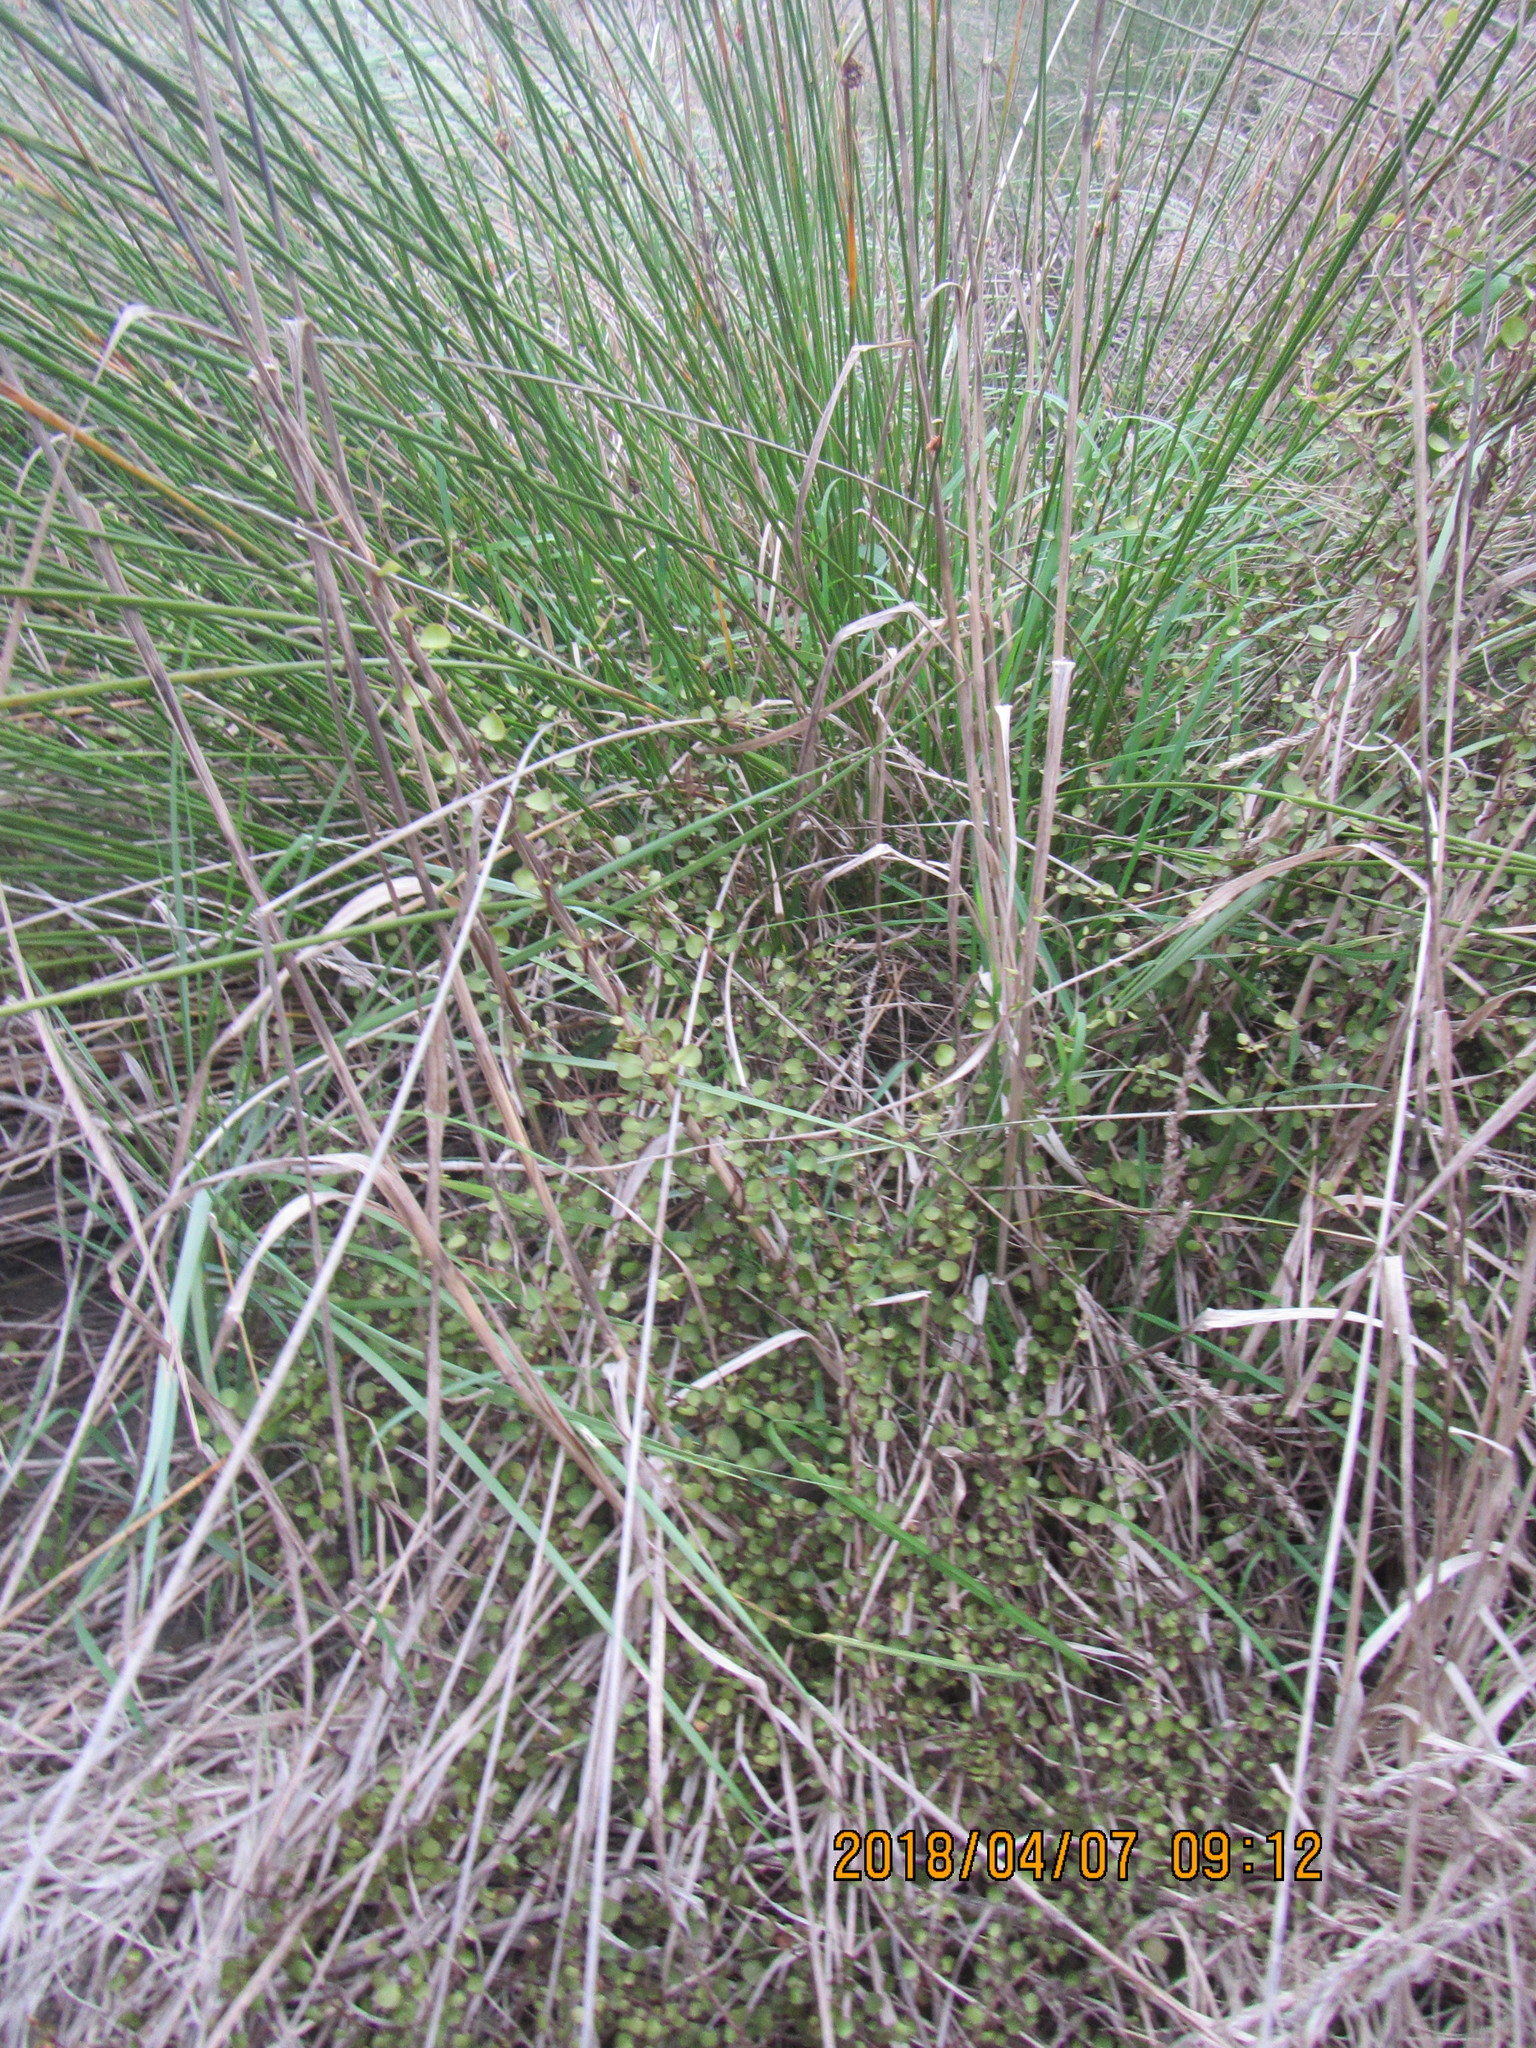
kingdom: Plantae
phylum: Tracheophyta
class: Magnoliopsida
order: Caryophyllales
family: Polygonaceae
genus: Muehlenbeckia
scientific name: Muehlenbeckia complexa
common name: Wireplant
